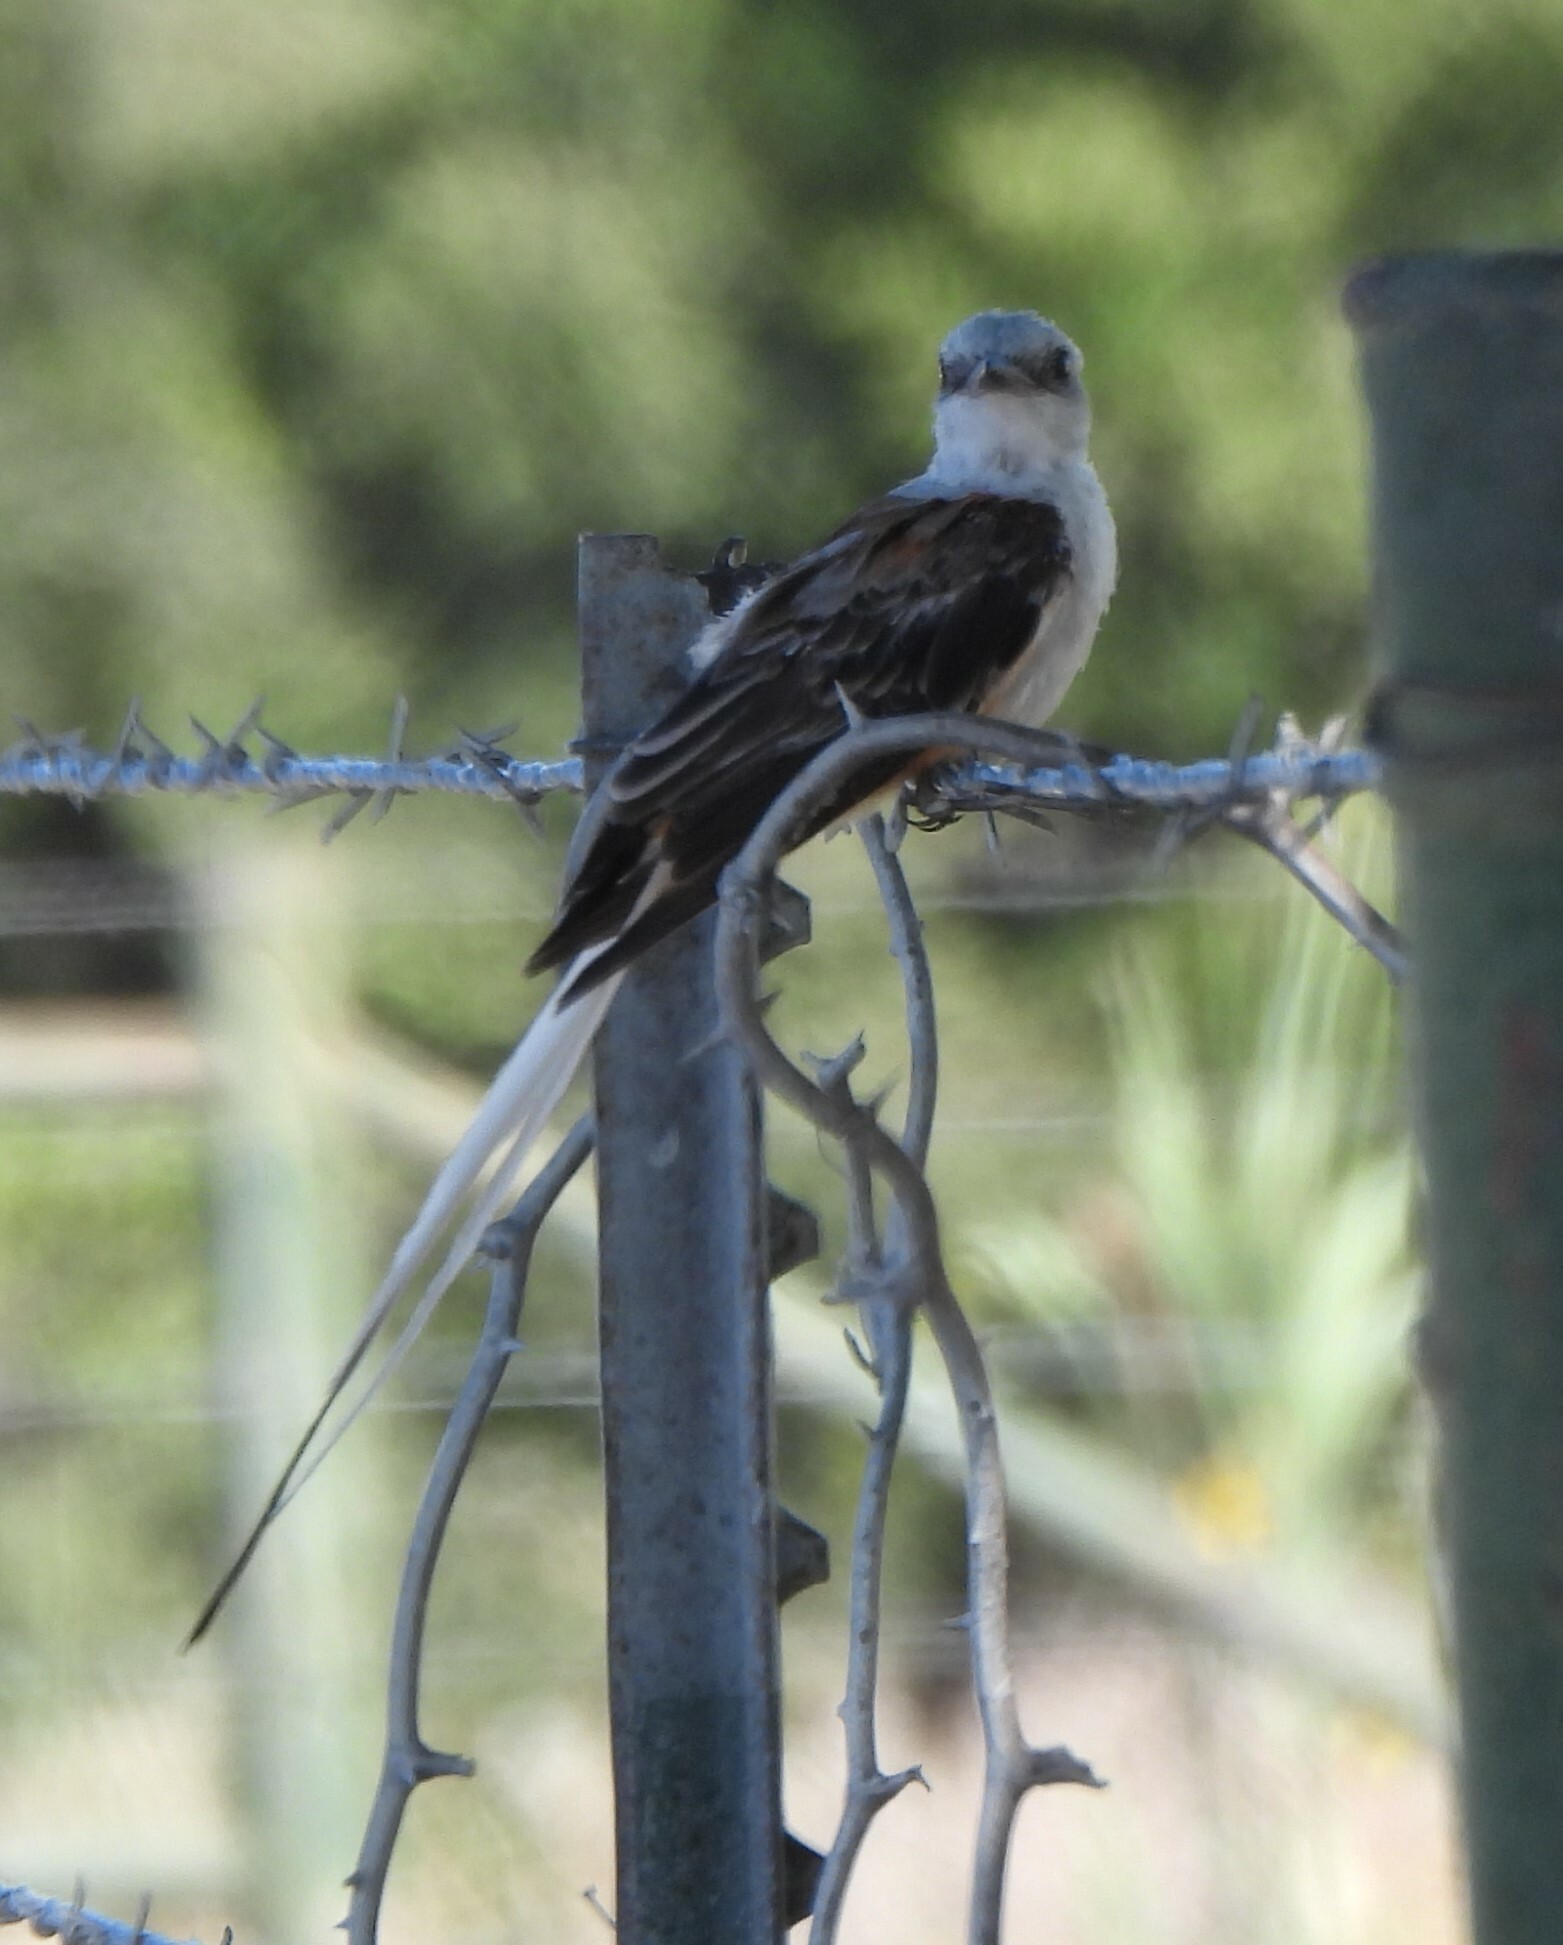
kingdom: Animalia
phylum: Chordata
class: Aves
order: Passeriformes
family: Tyrannidae
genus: Tyrannus
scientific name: Tyrannus forficatus
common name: Scissor-tailed flycatcher
